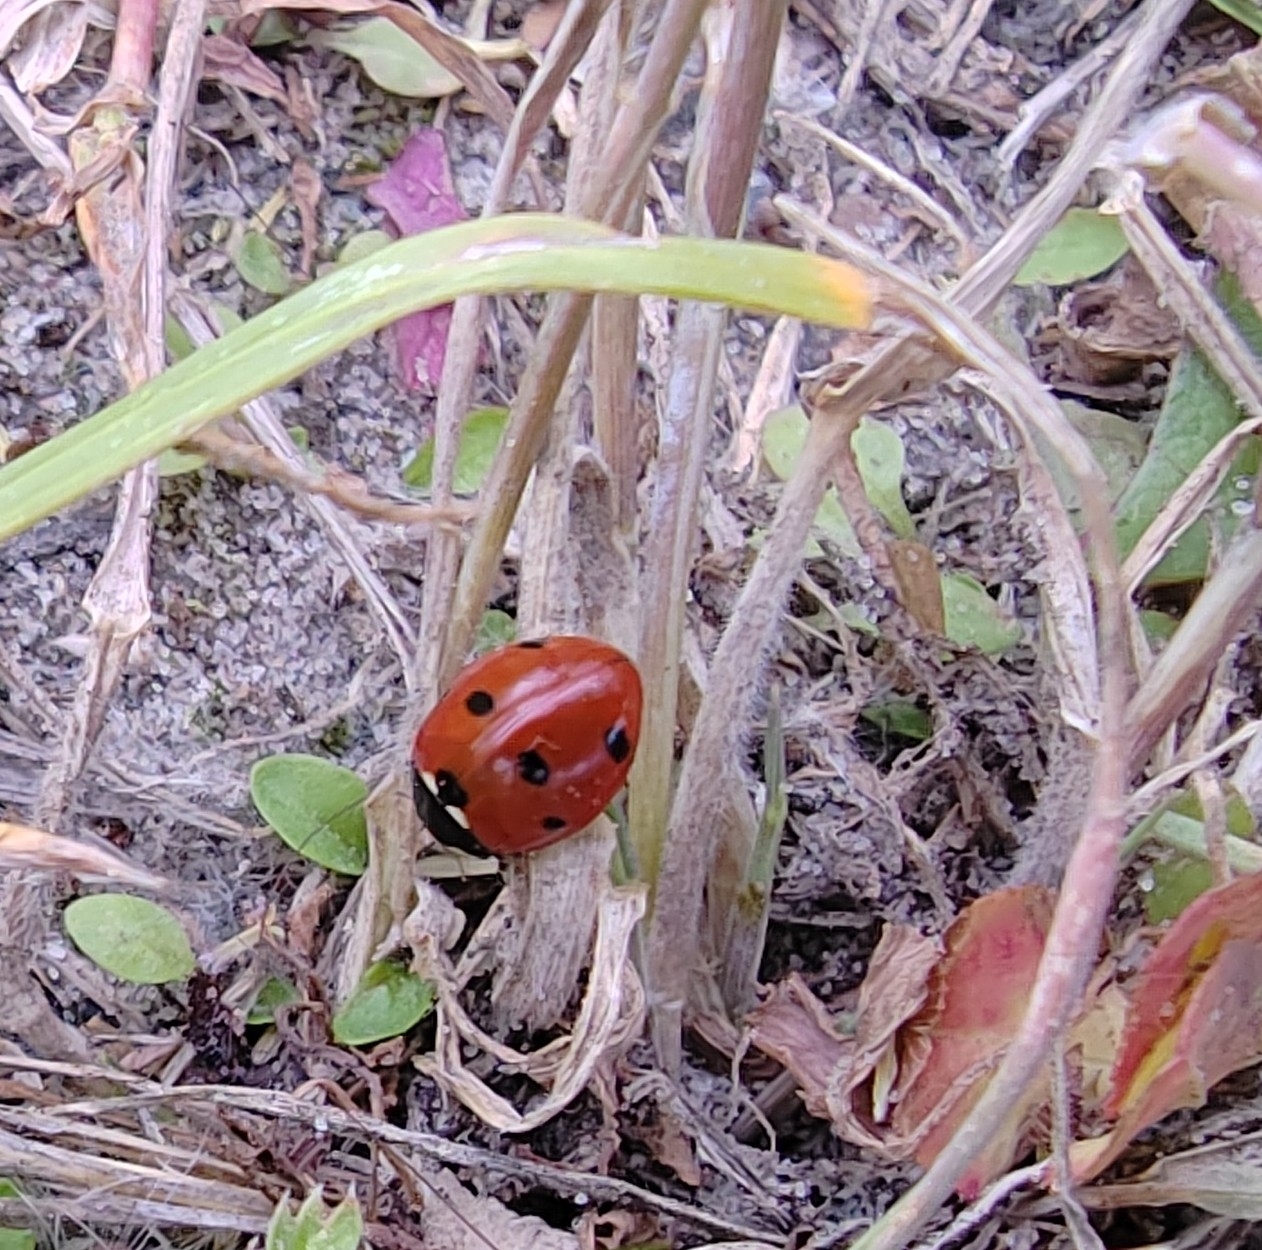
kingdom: Animalia
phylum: Arthropoda
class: Insecta
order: Coleoptera
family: Coccinellidae
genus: Coccinella
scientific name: Coccinella septempunctata
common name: Sevenspotted lady beetle
